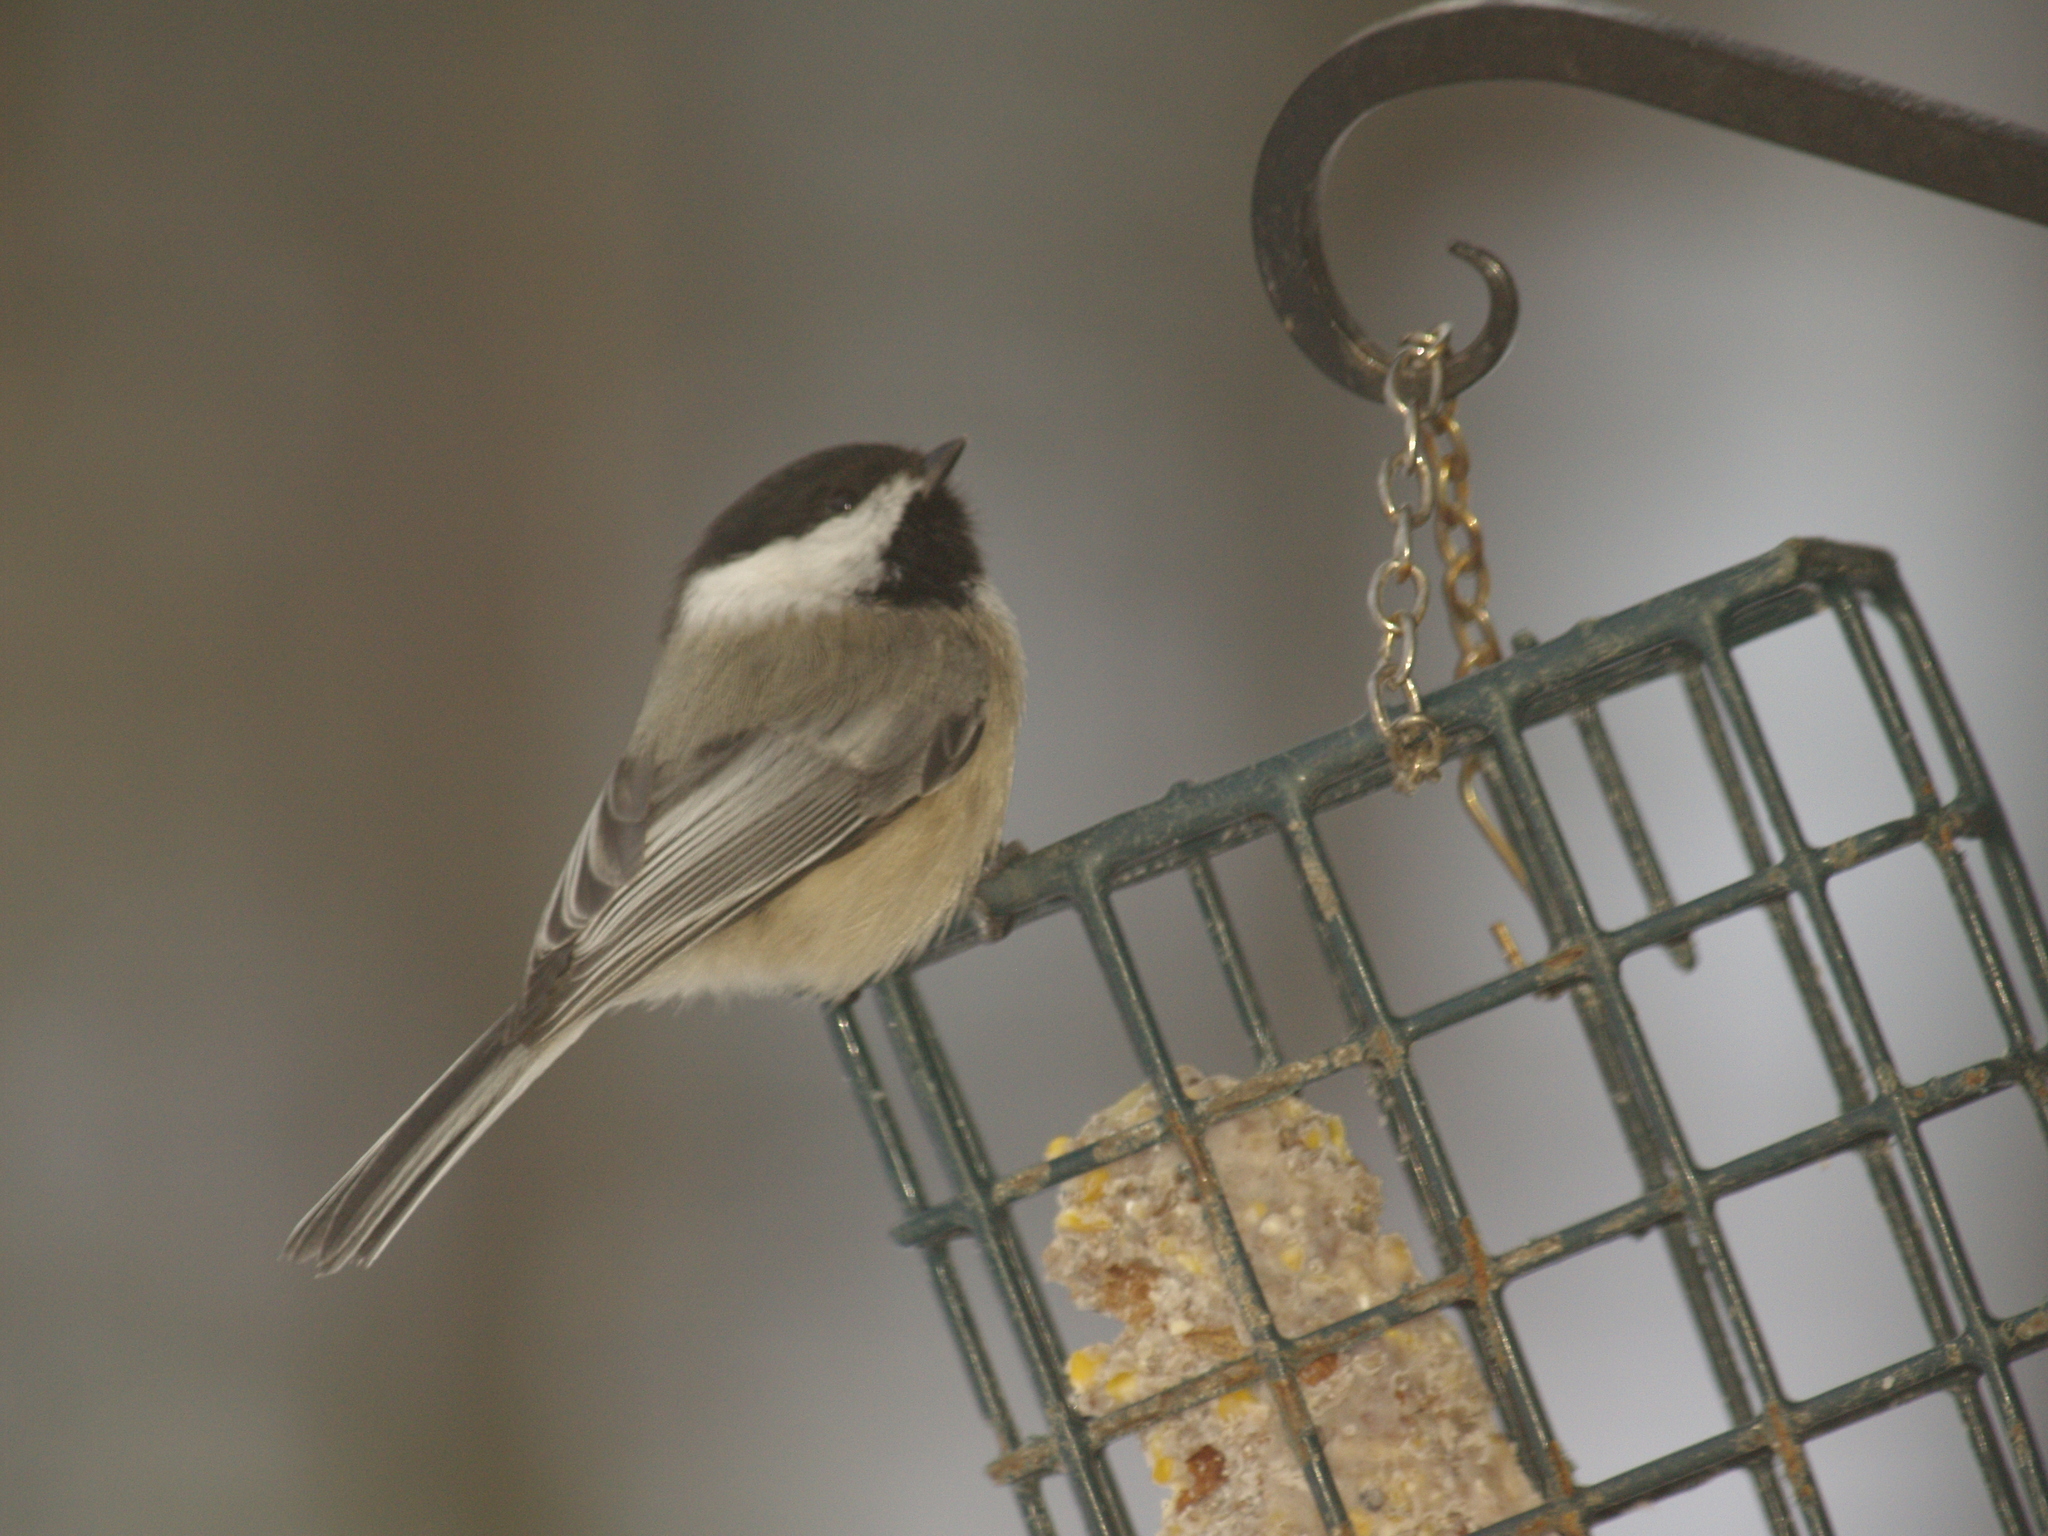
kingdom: Animalia
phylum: Chordata
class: Aves
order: Passeriformes
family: Paridae
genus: Poecile
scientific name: Poecile atricapillus
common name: Black-capped chickadee
